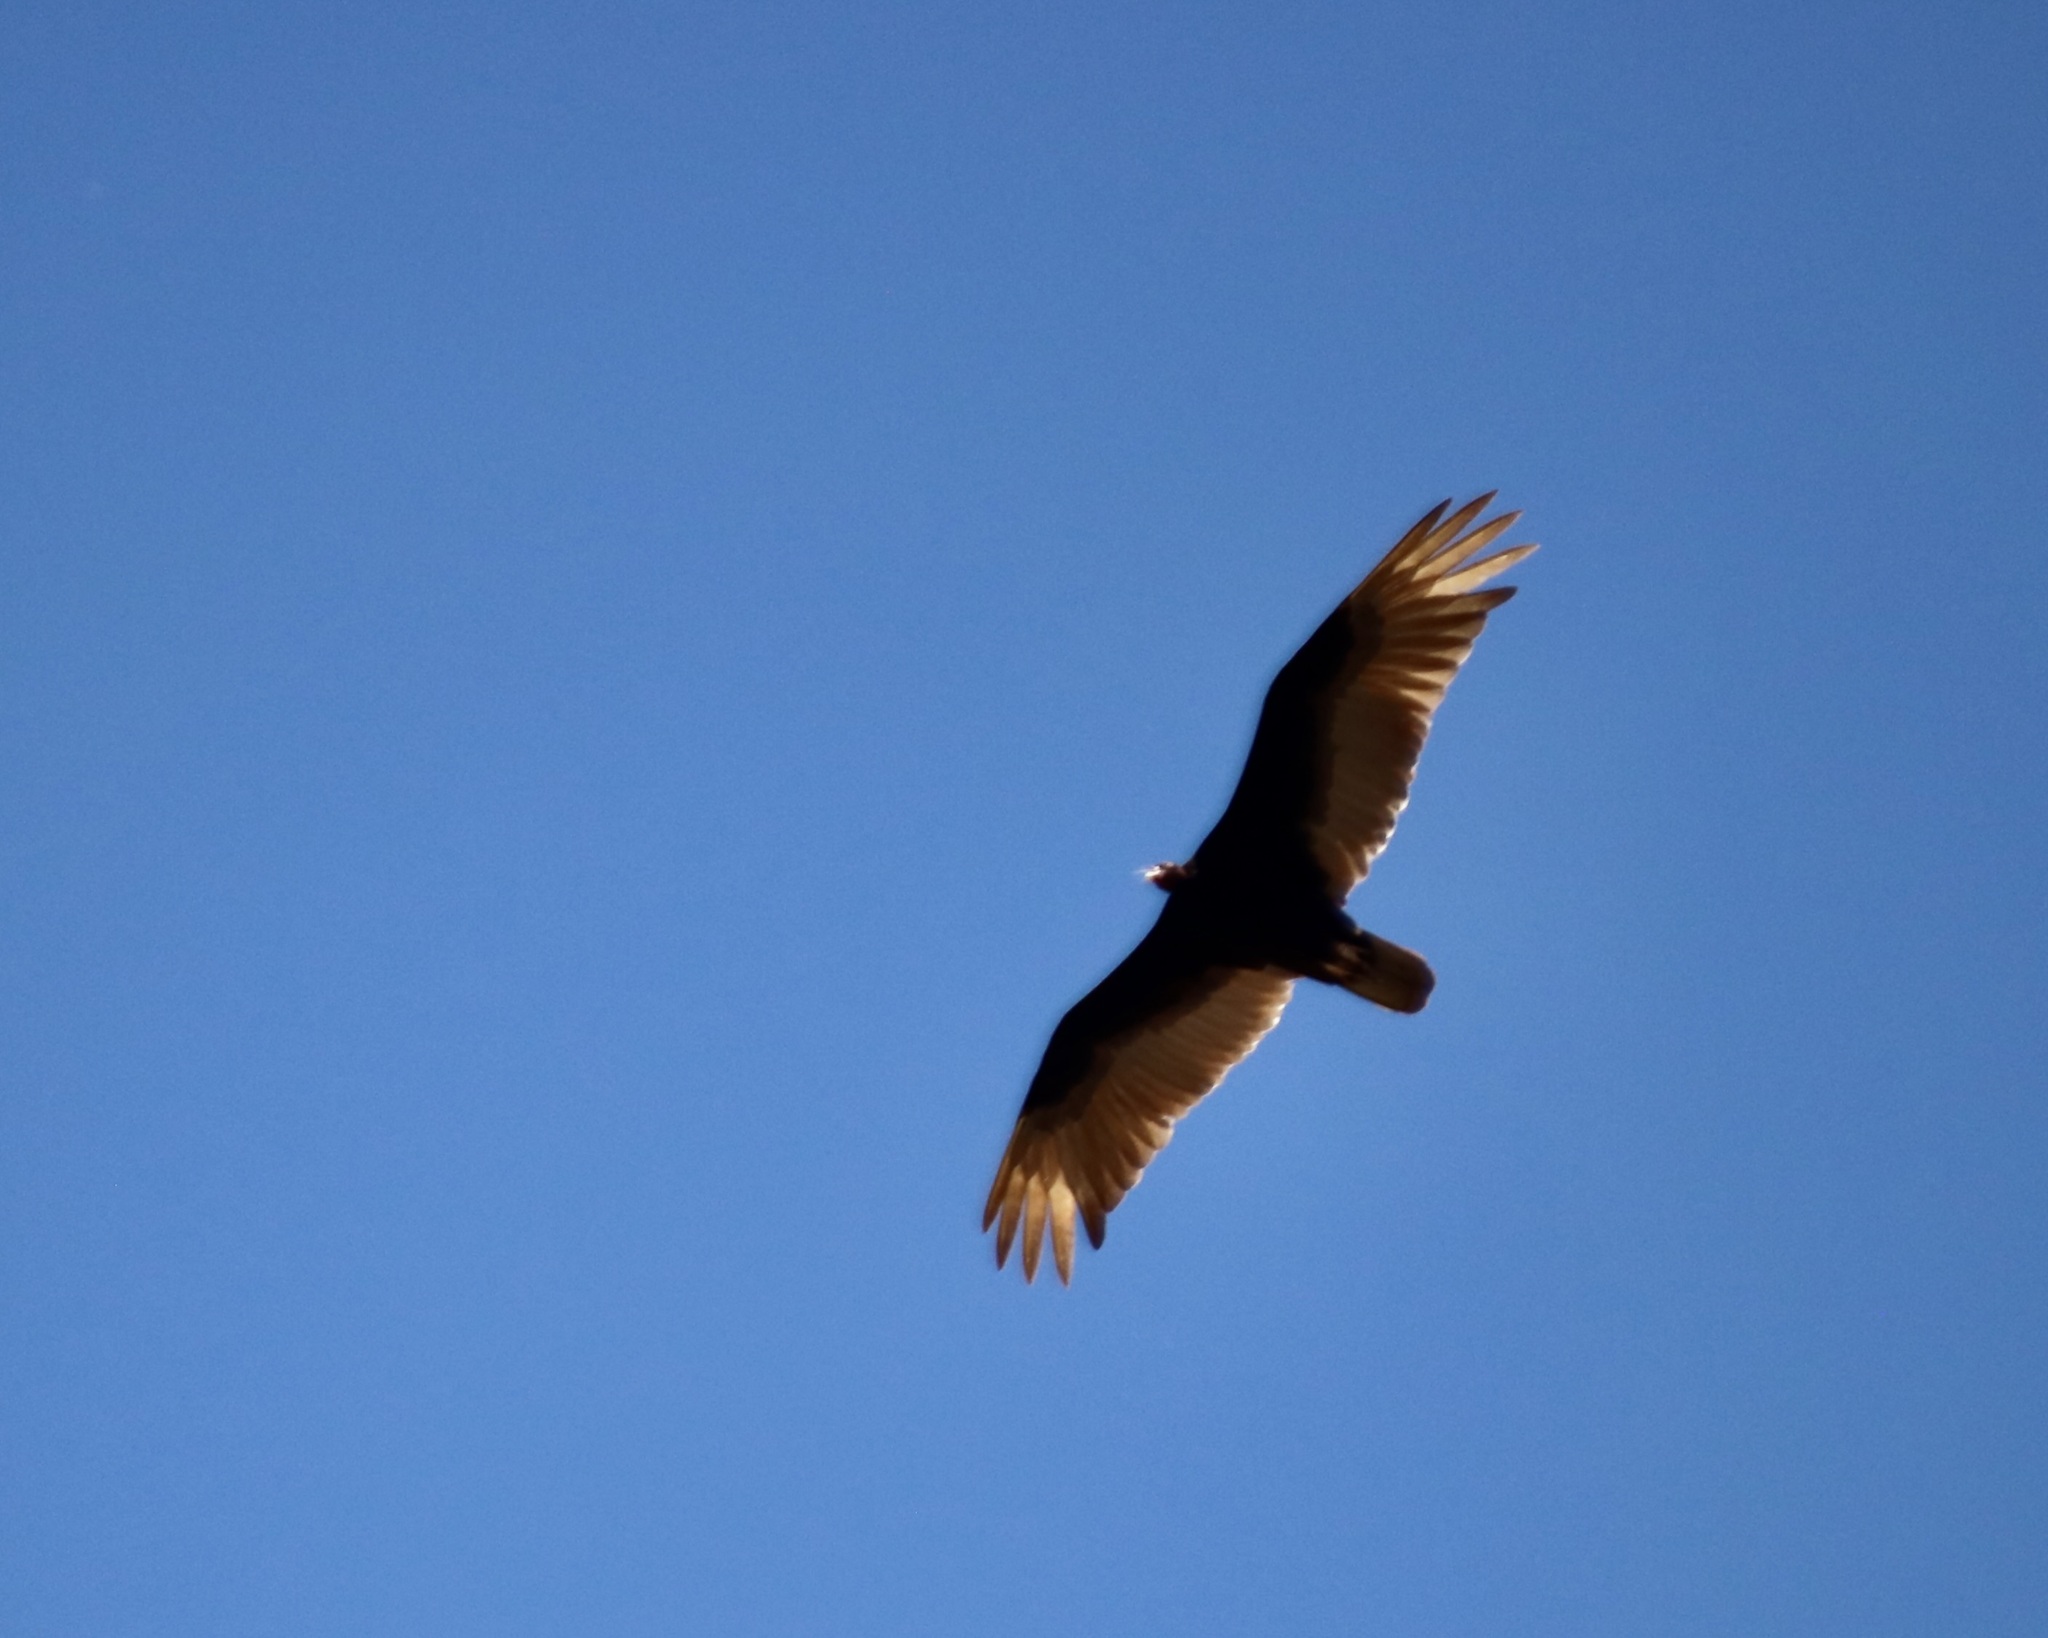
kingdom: Animalia
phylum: Chordata
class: Aves
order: Accipitriformes
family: Cathartidae
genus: Cathartes
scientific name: Cathartes aura
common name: Turkey vulture
